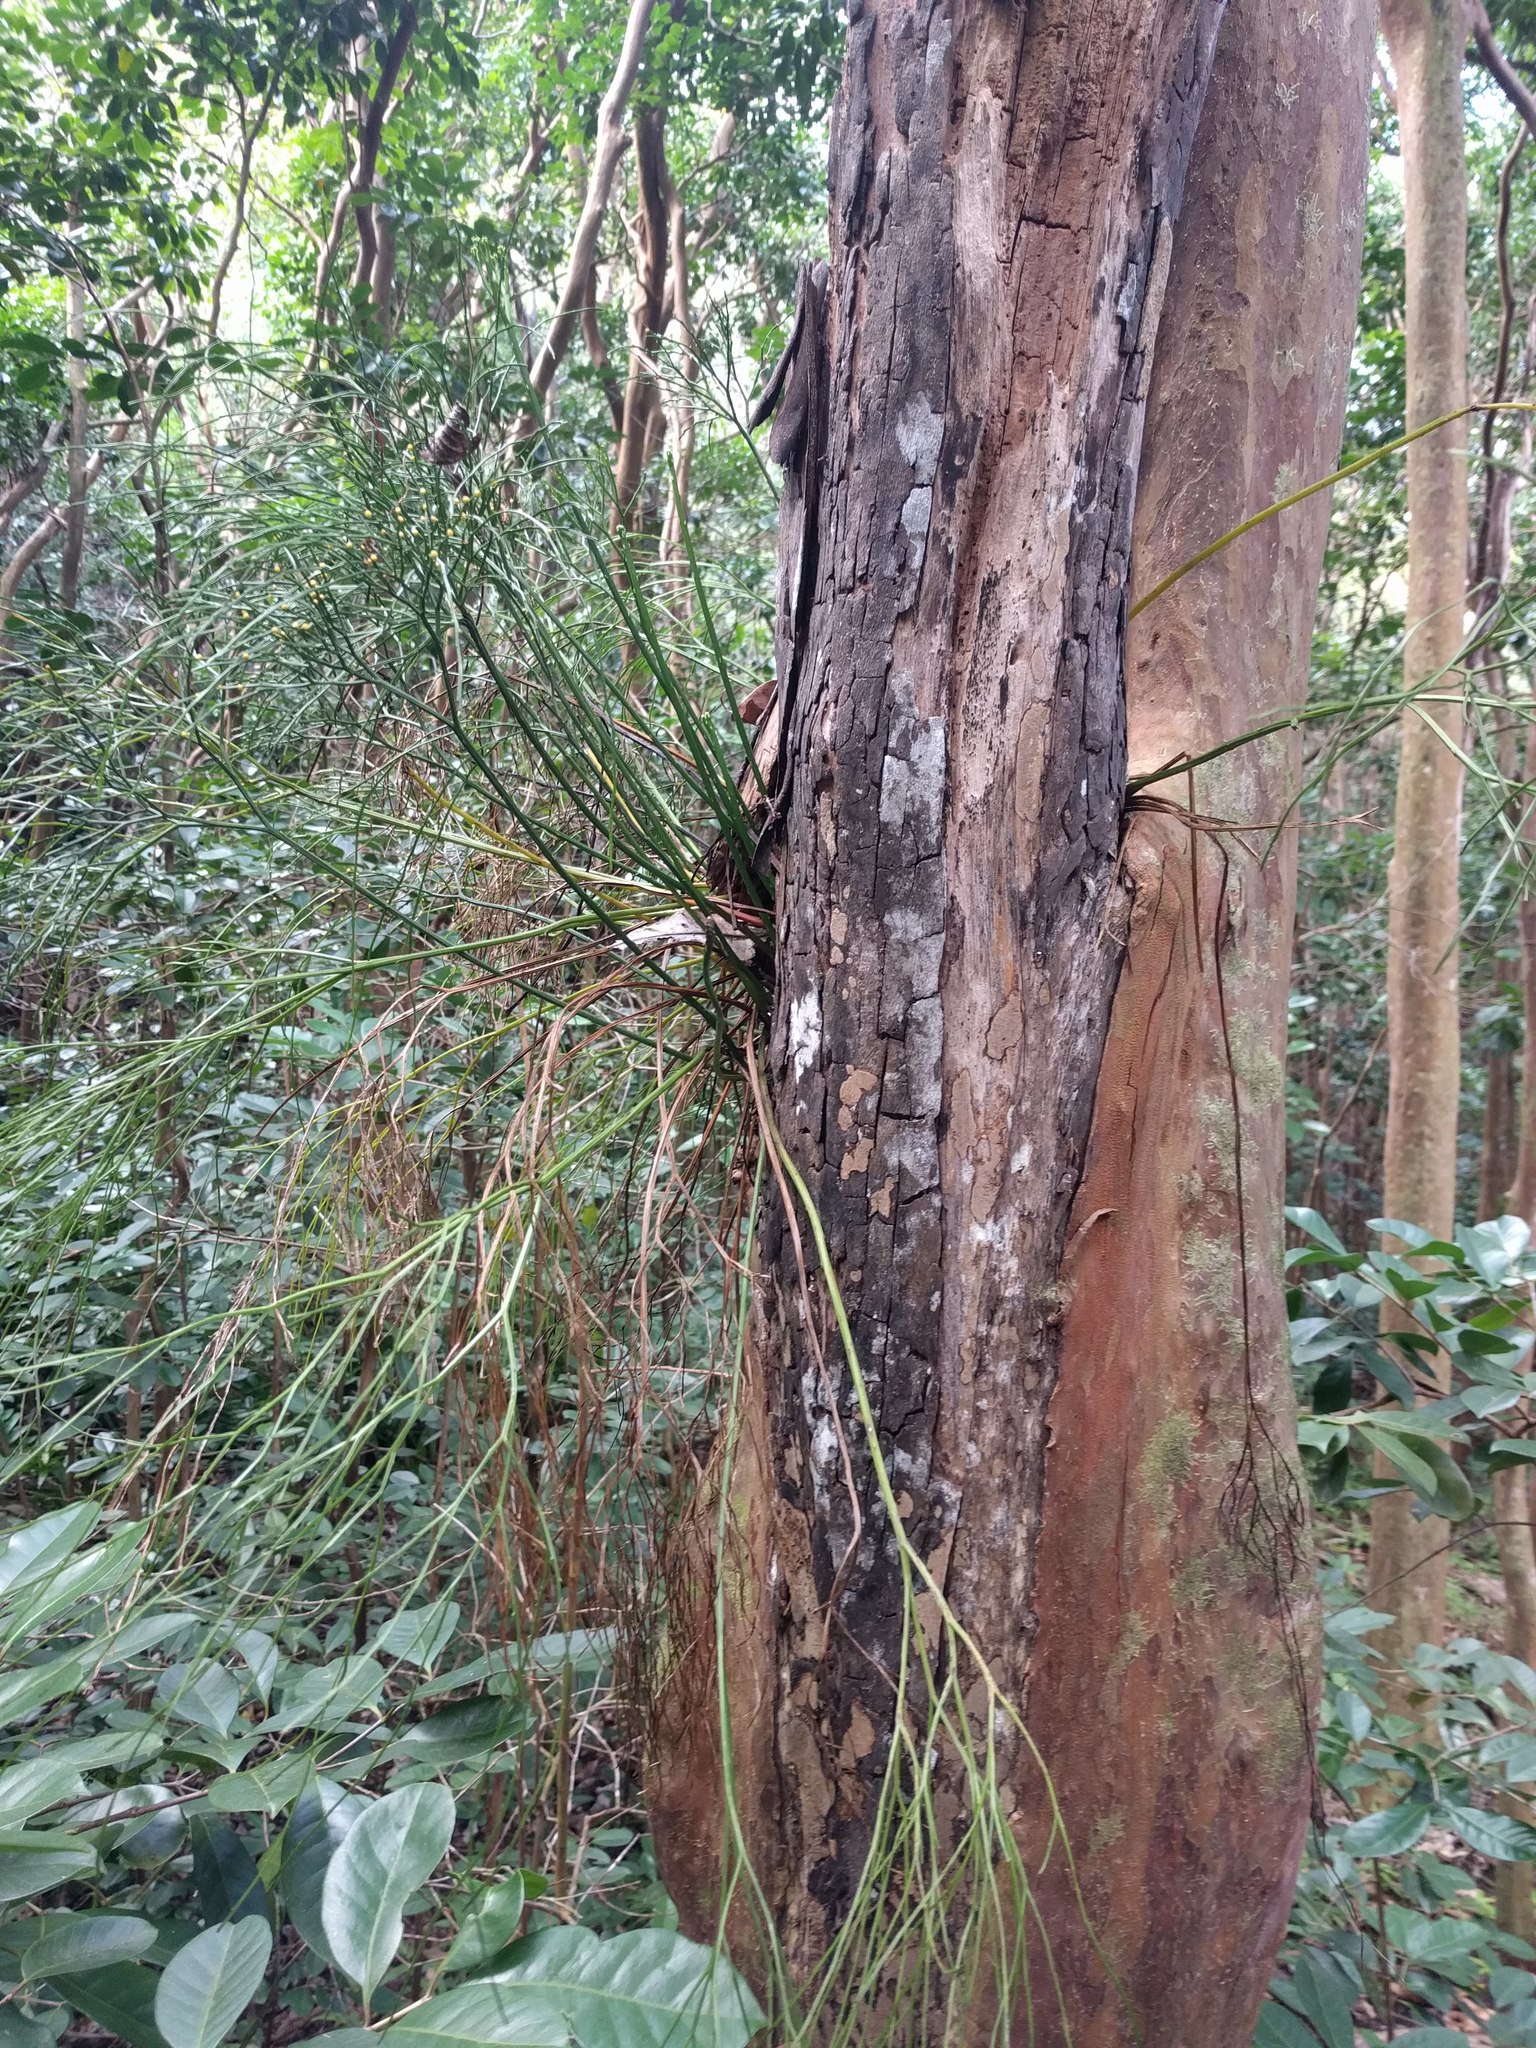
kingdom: Plantae
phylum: Tracheophyta
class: Polypodiopsida
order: Psilotales
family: Psilotaceae
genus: Psilotum
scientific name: Psilotum nudum
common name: Skeleton fork fern
